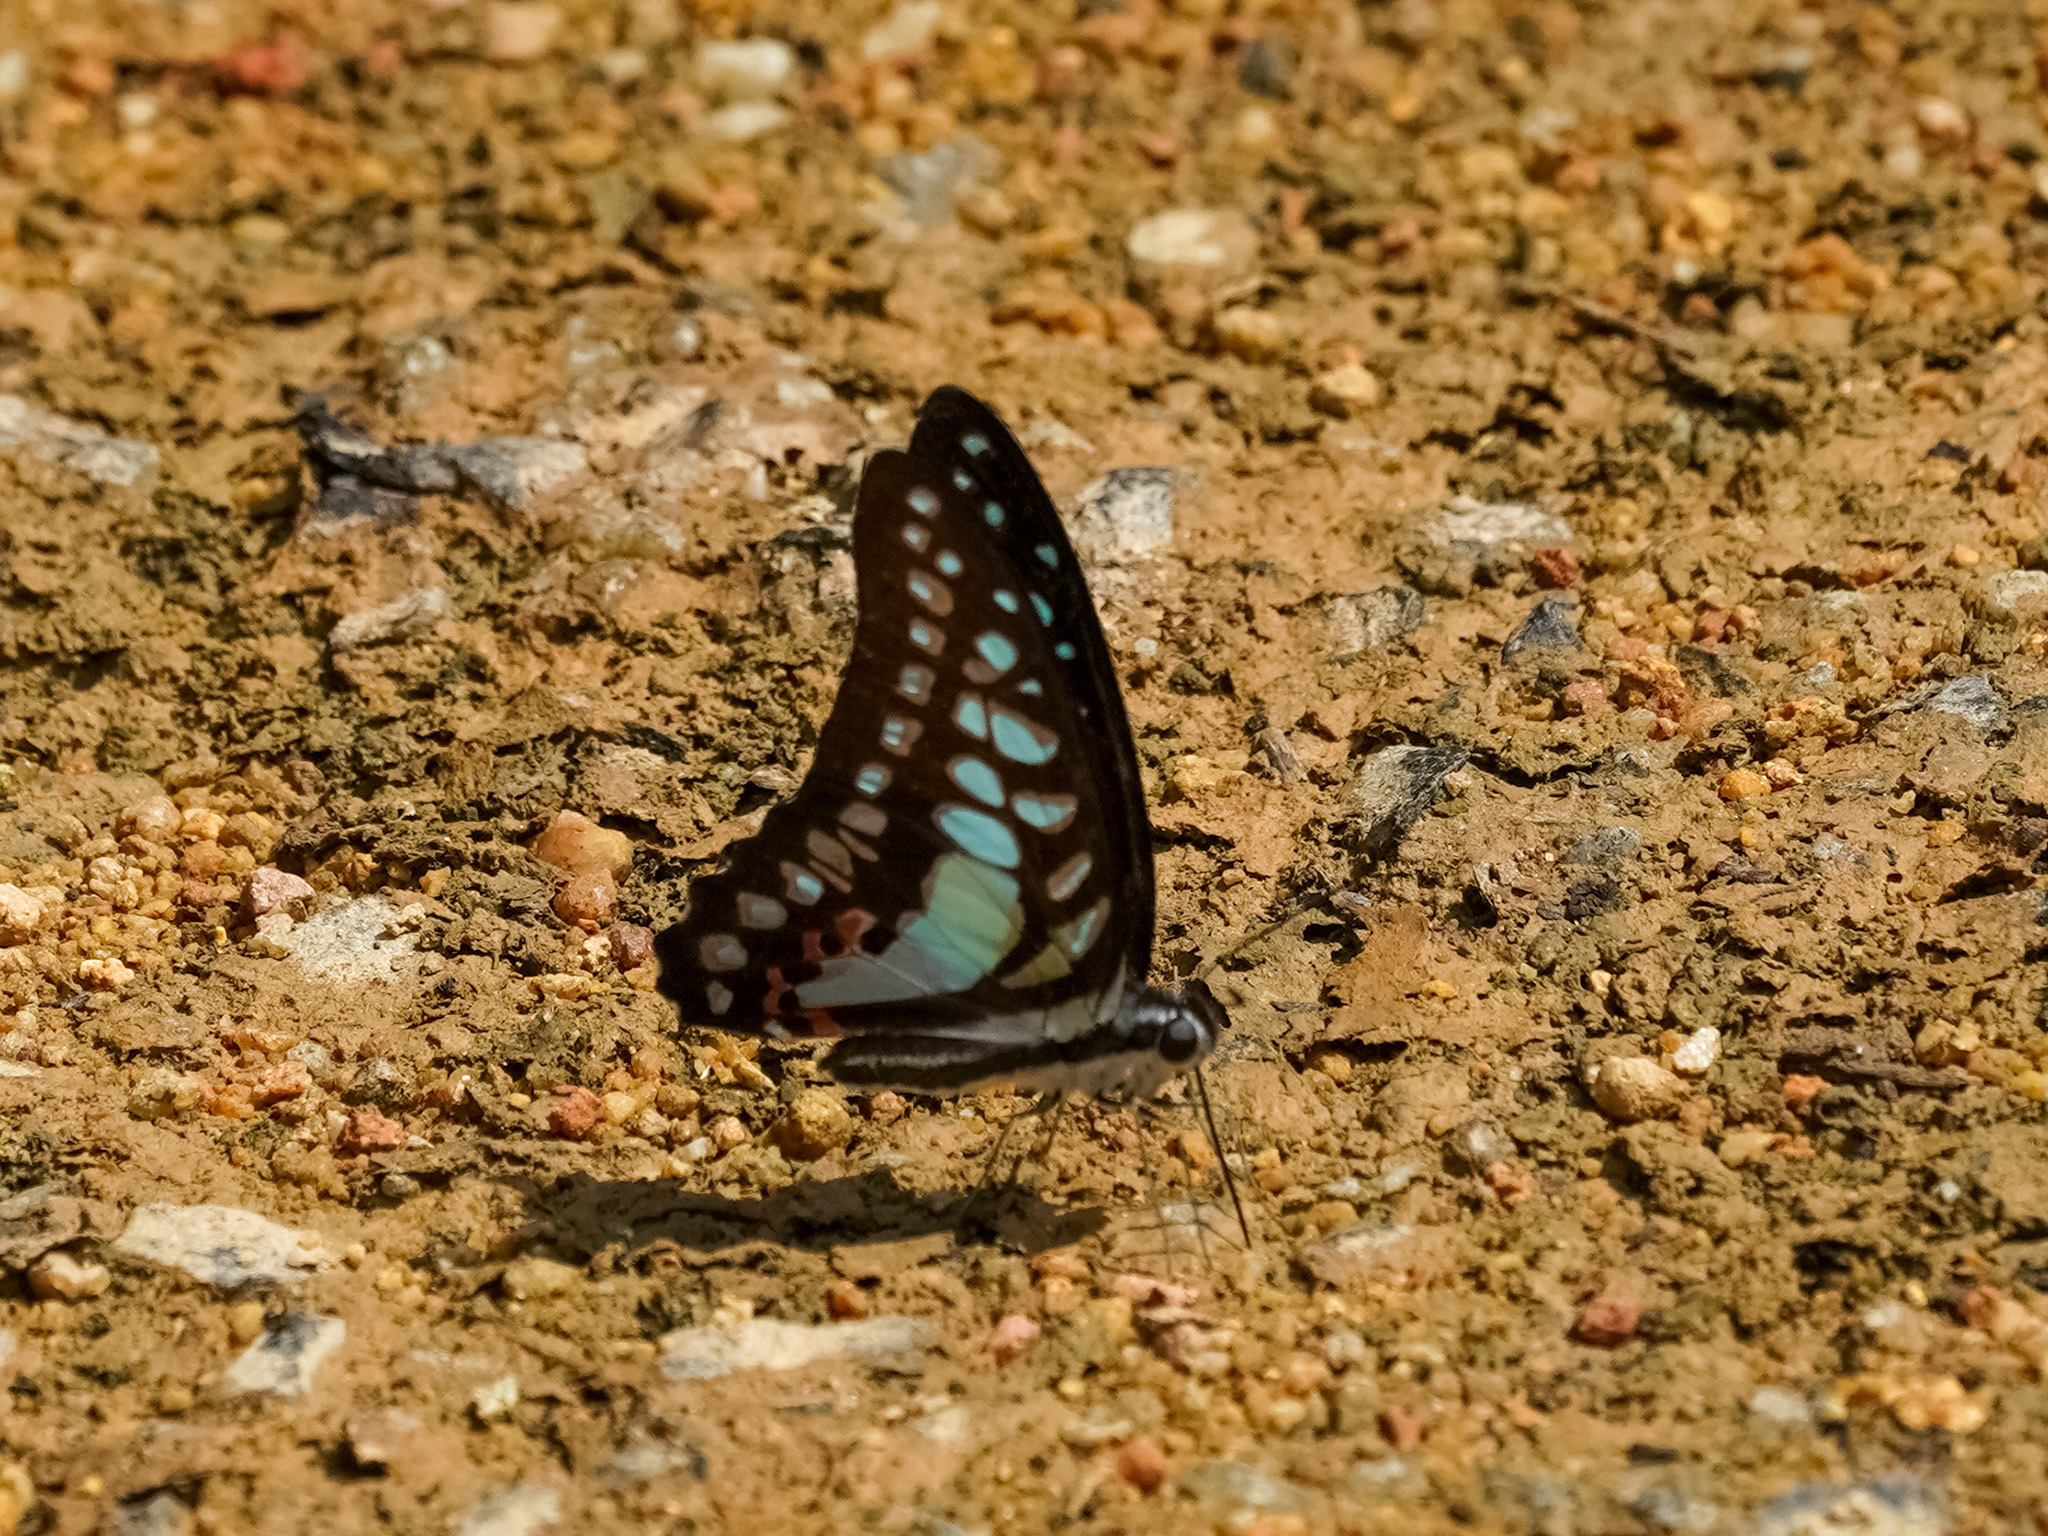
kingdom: Animalia
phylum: Arthropoda
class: Insecta
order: Lepidoptera
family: Papilionidae
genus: Graphium
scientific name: Graphium evemon
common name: Lesser jay
